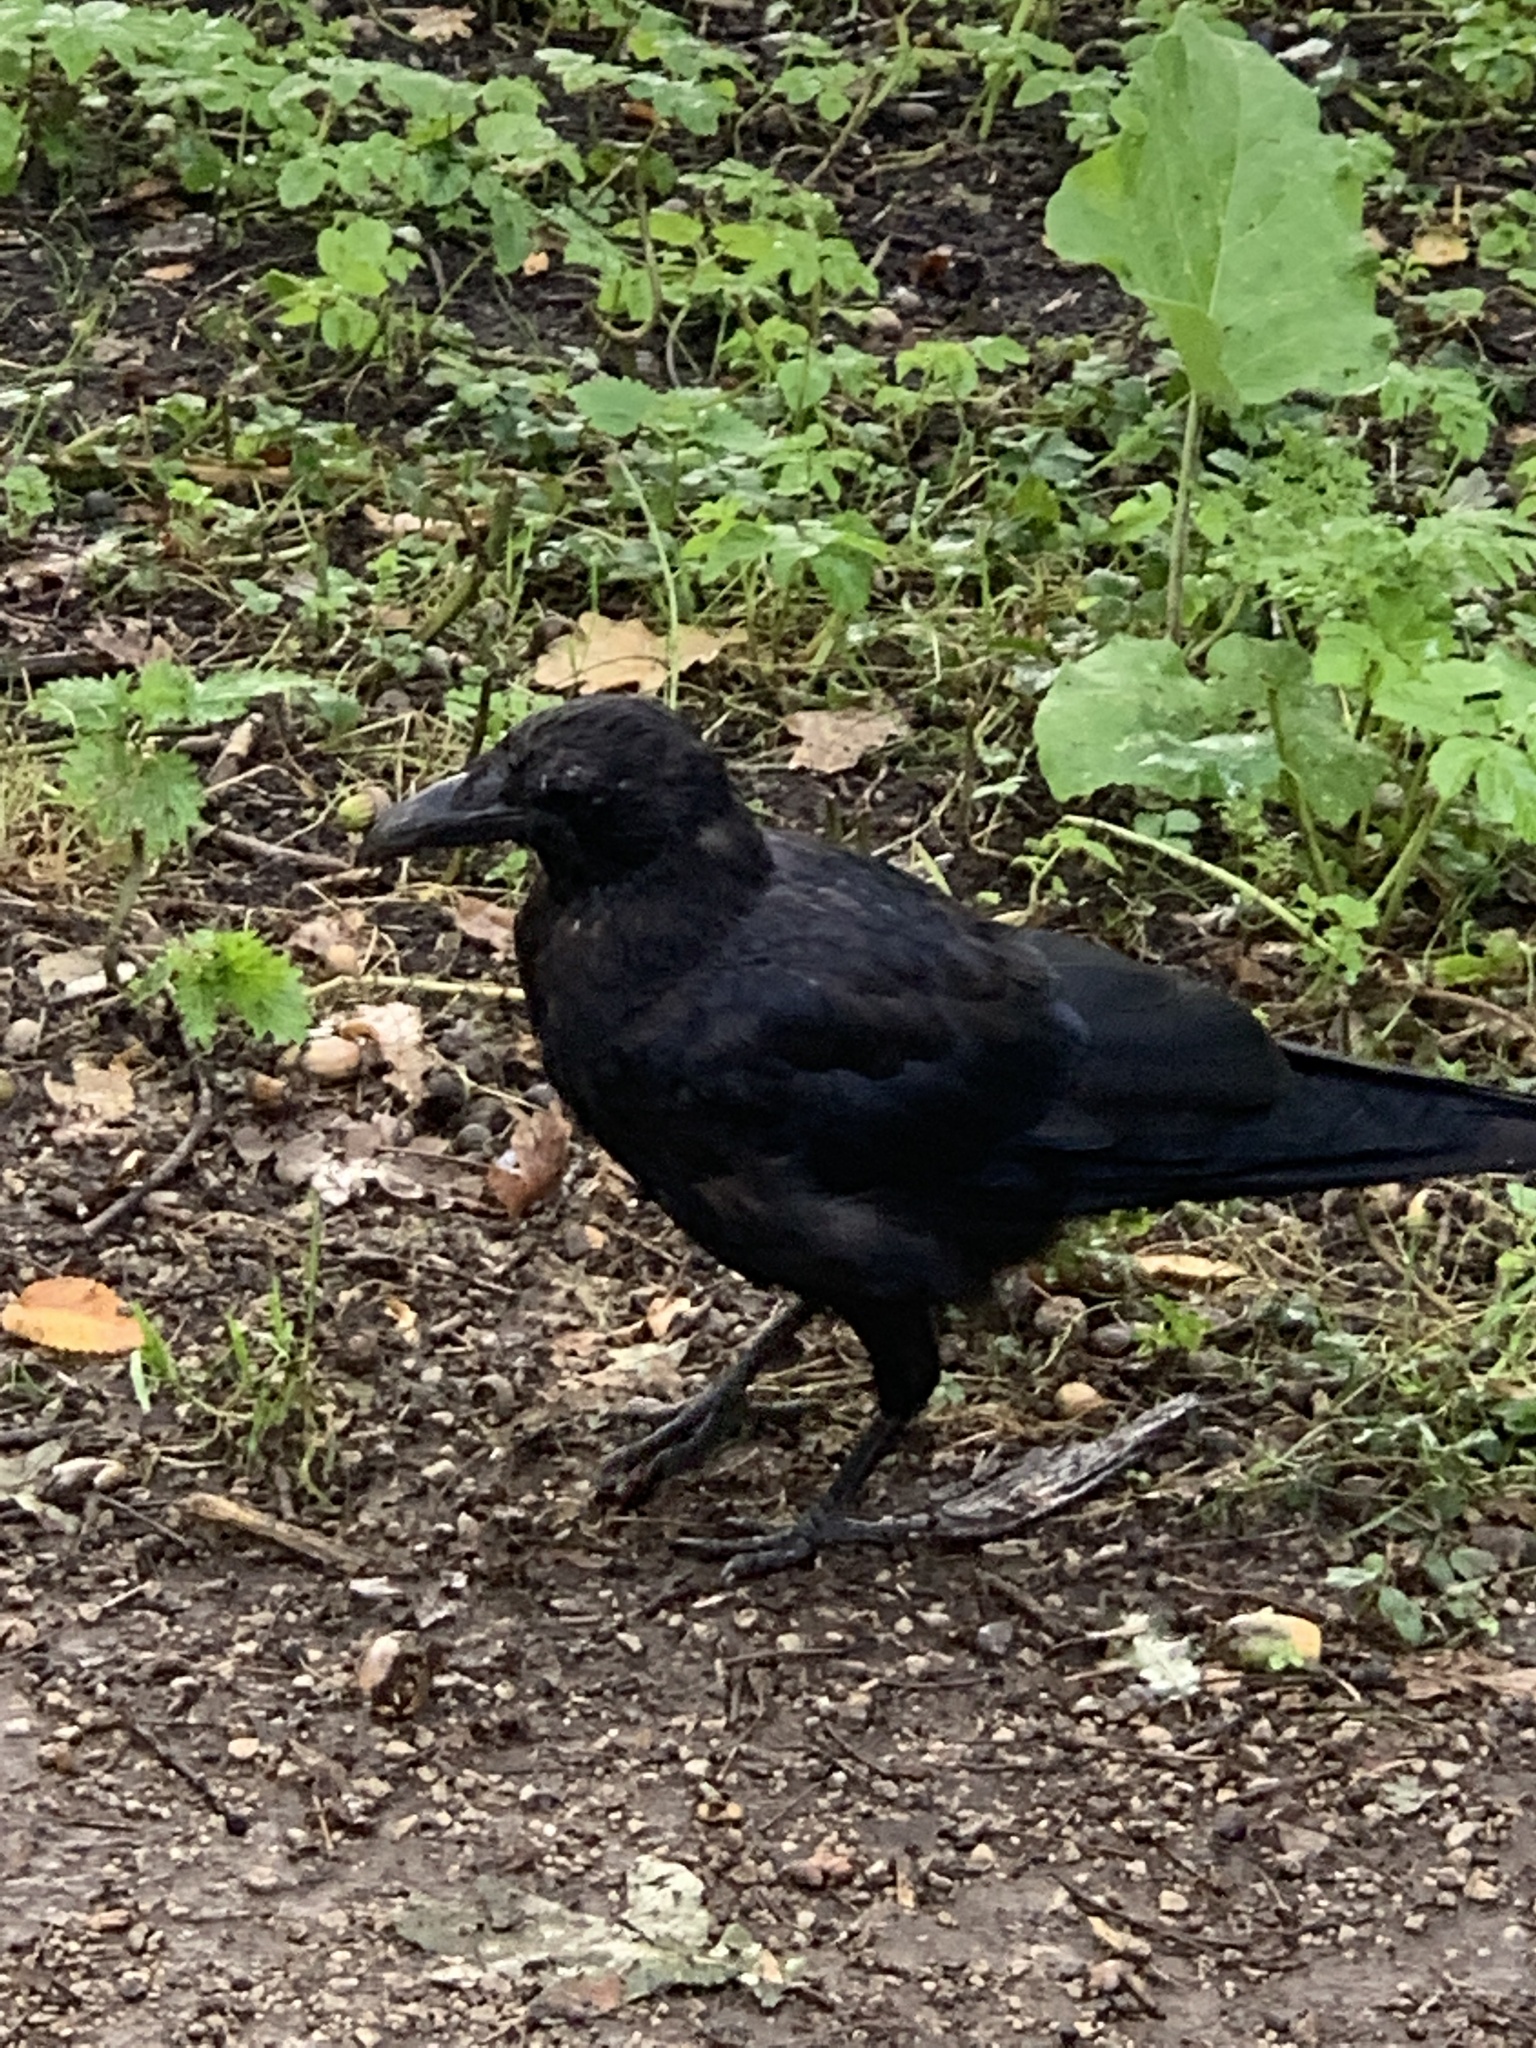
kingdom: Animalia
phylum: Chordata
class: Aves
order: Passeriformes
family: Corvidae
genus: Corvus
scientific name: Corvus corone
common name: Carrion crow
